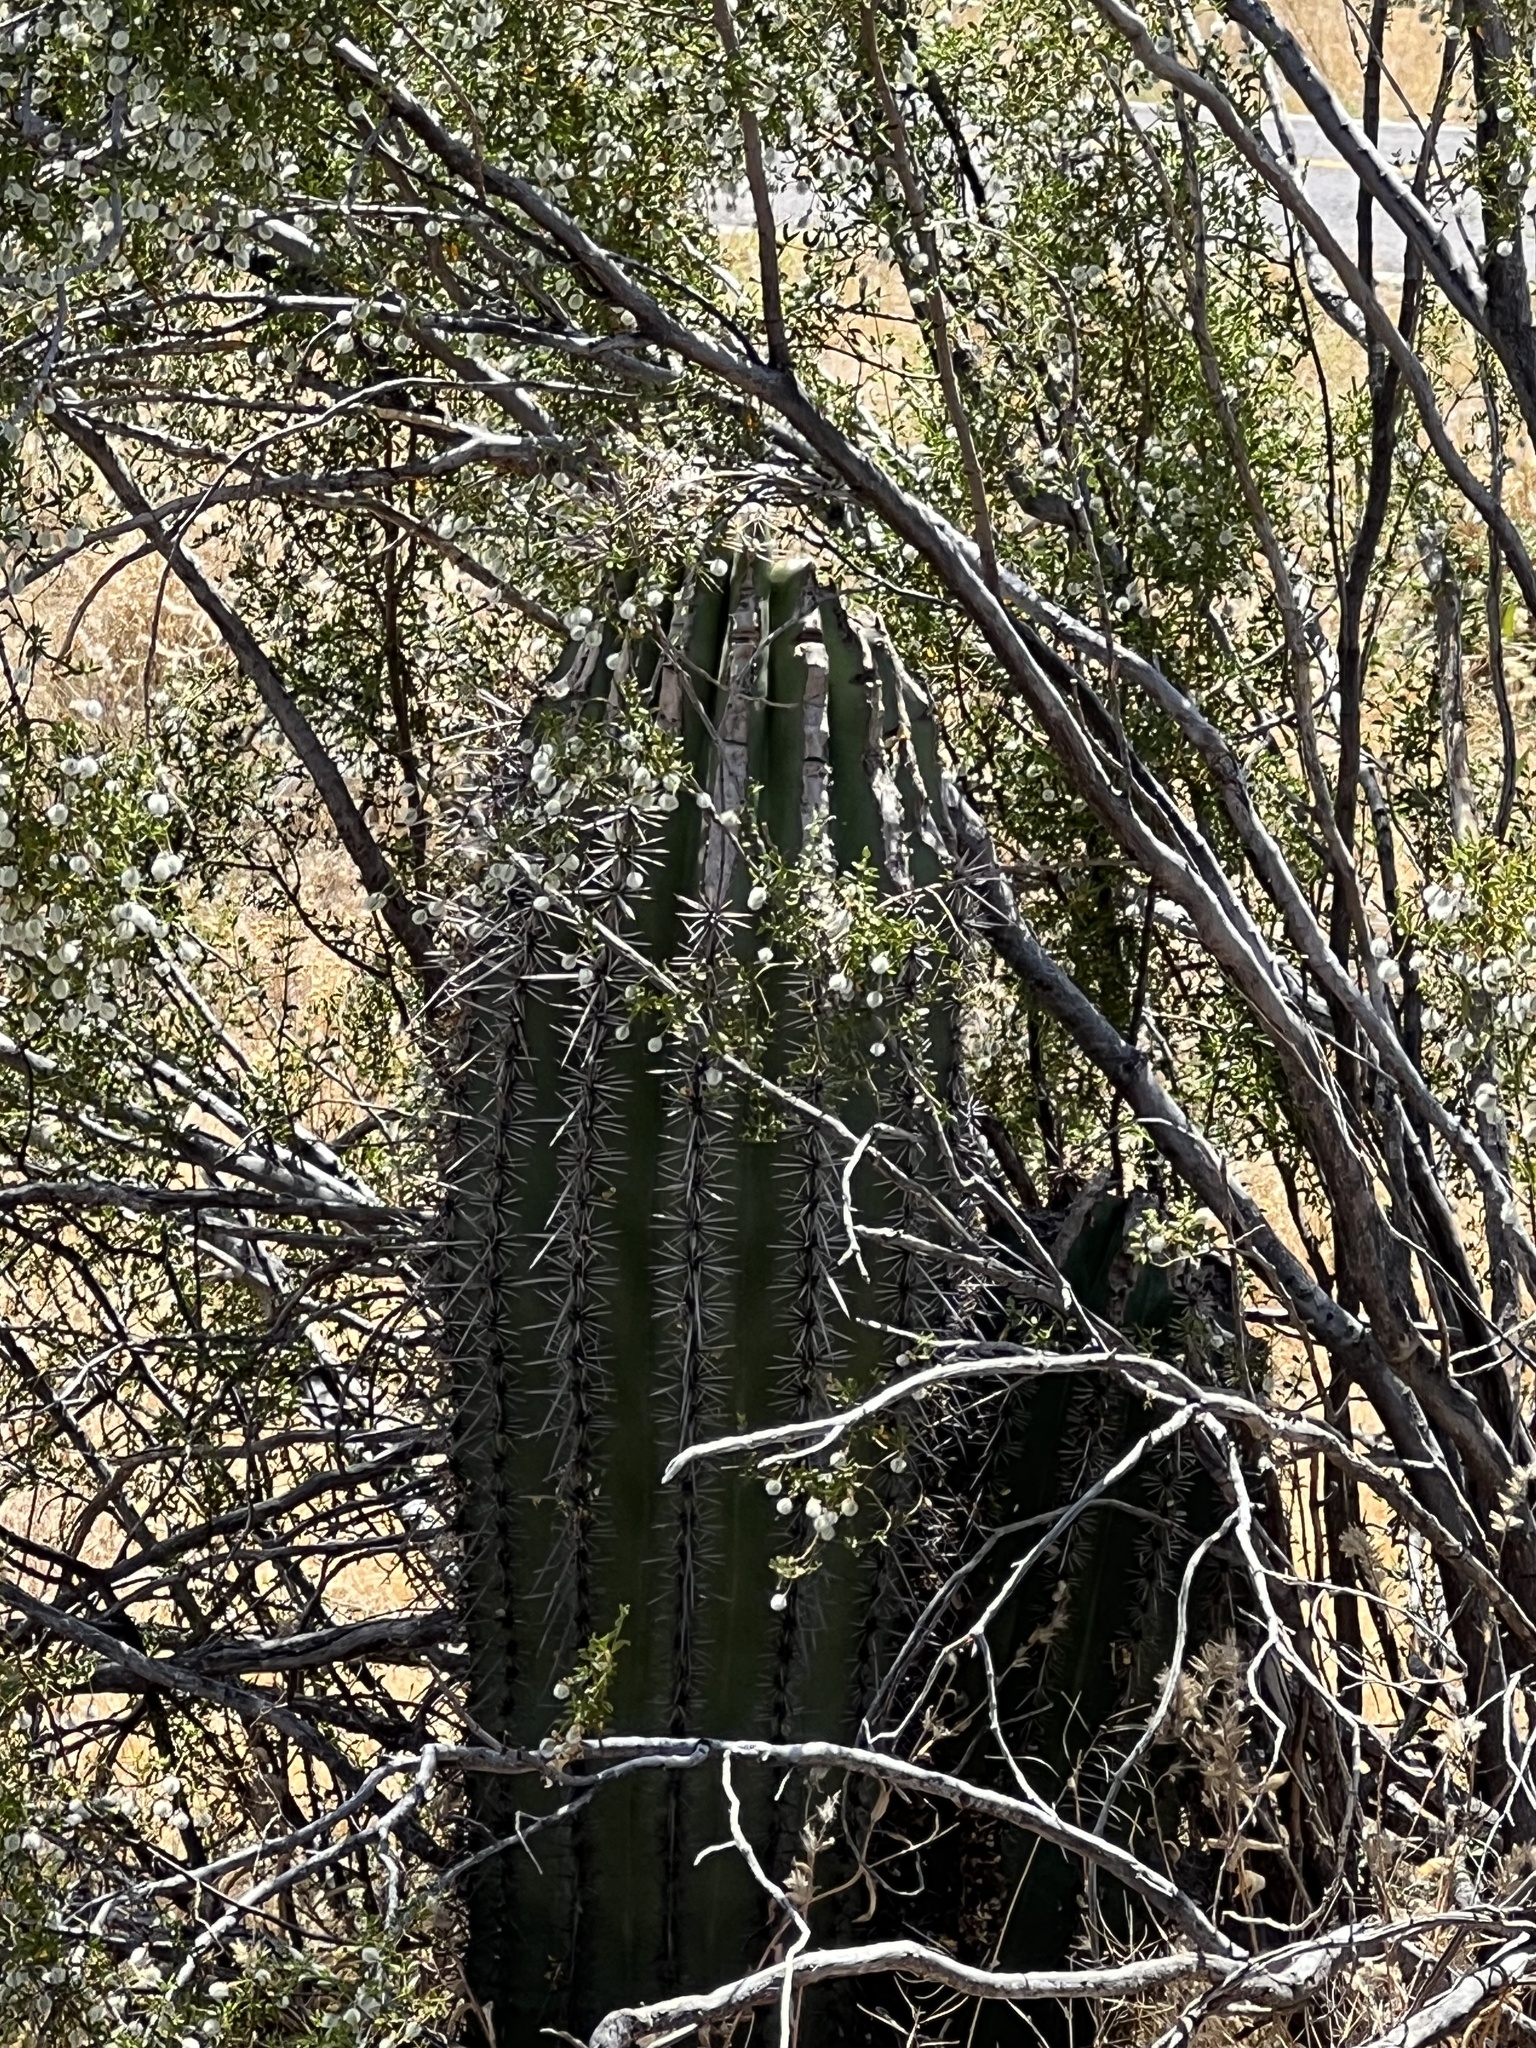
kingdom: Plantae
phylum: Tracheophyta
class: Magnoliopsida
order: Caryophyllales
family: Cactaceae
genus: Carnegiea
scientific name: Carnegiea gigantea
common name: Saguaro
